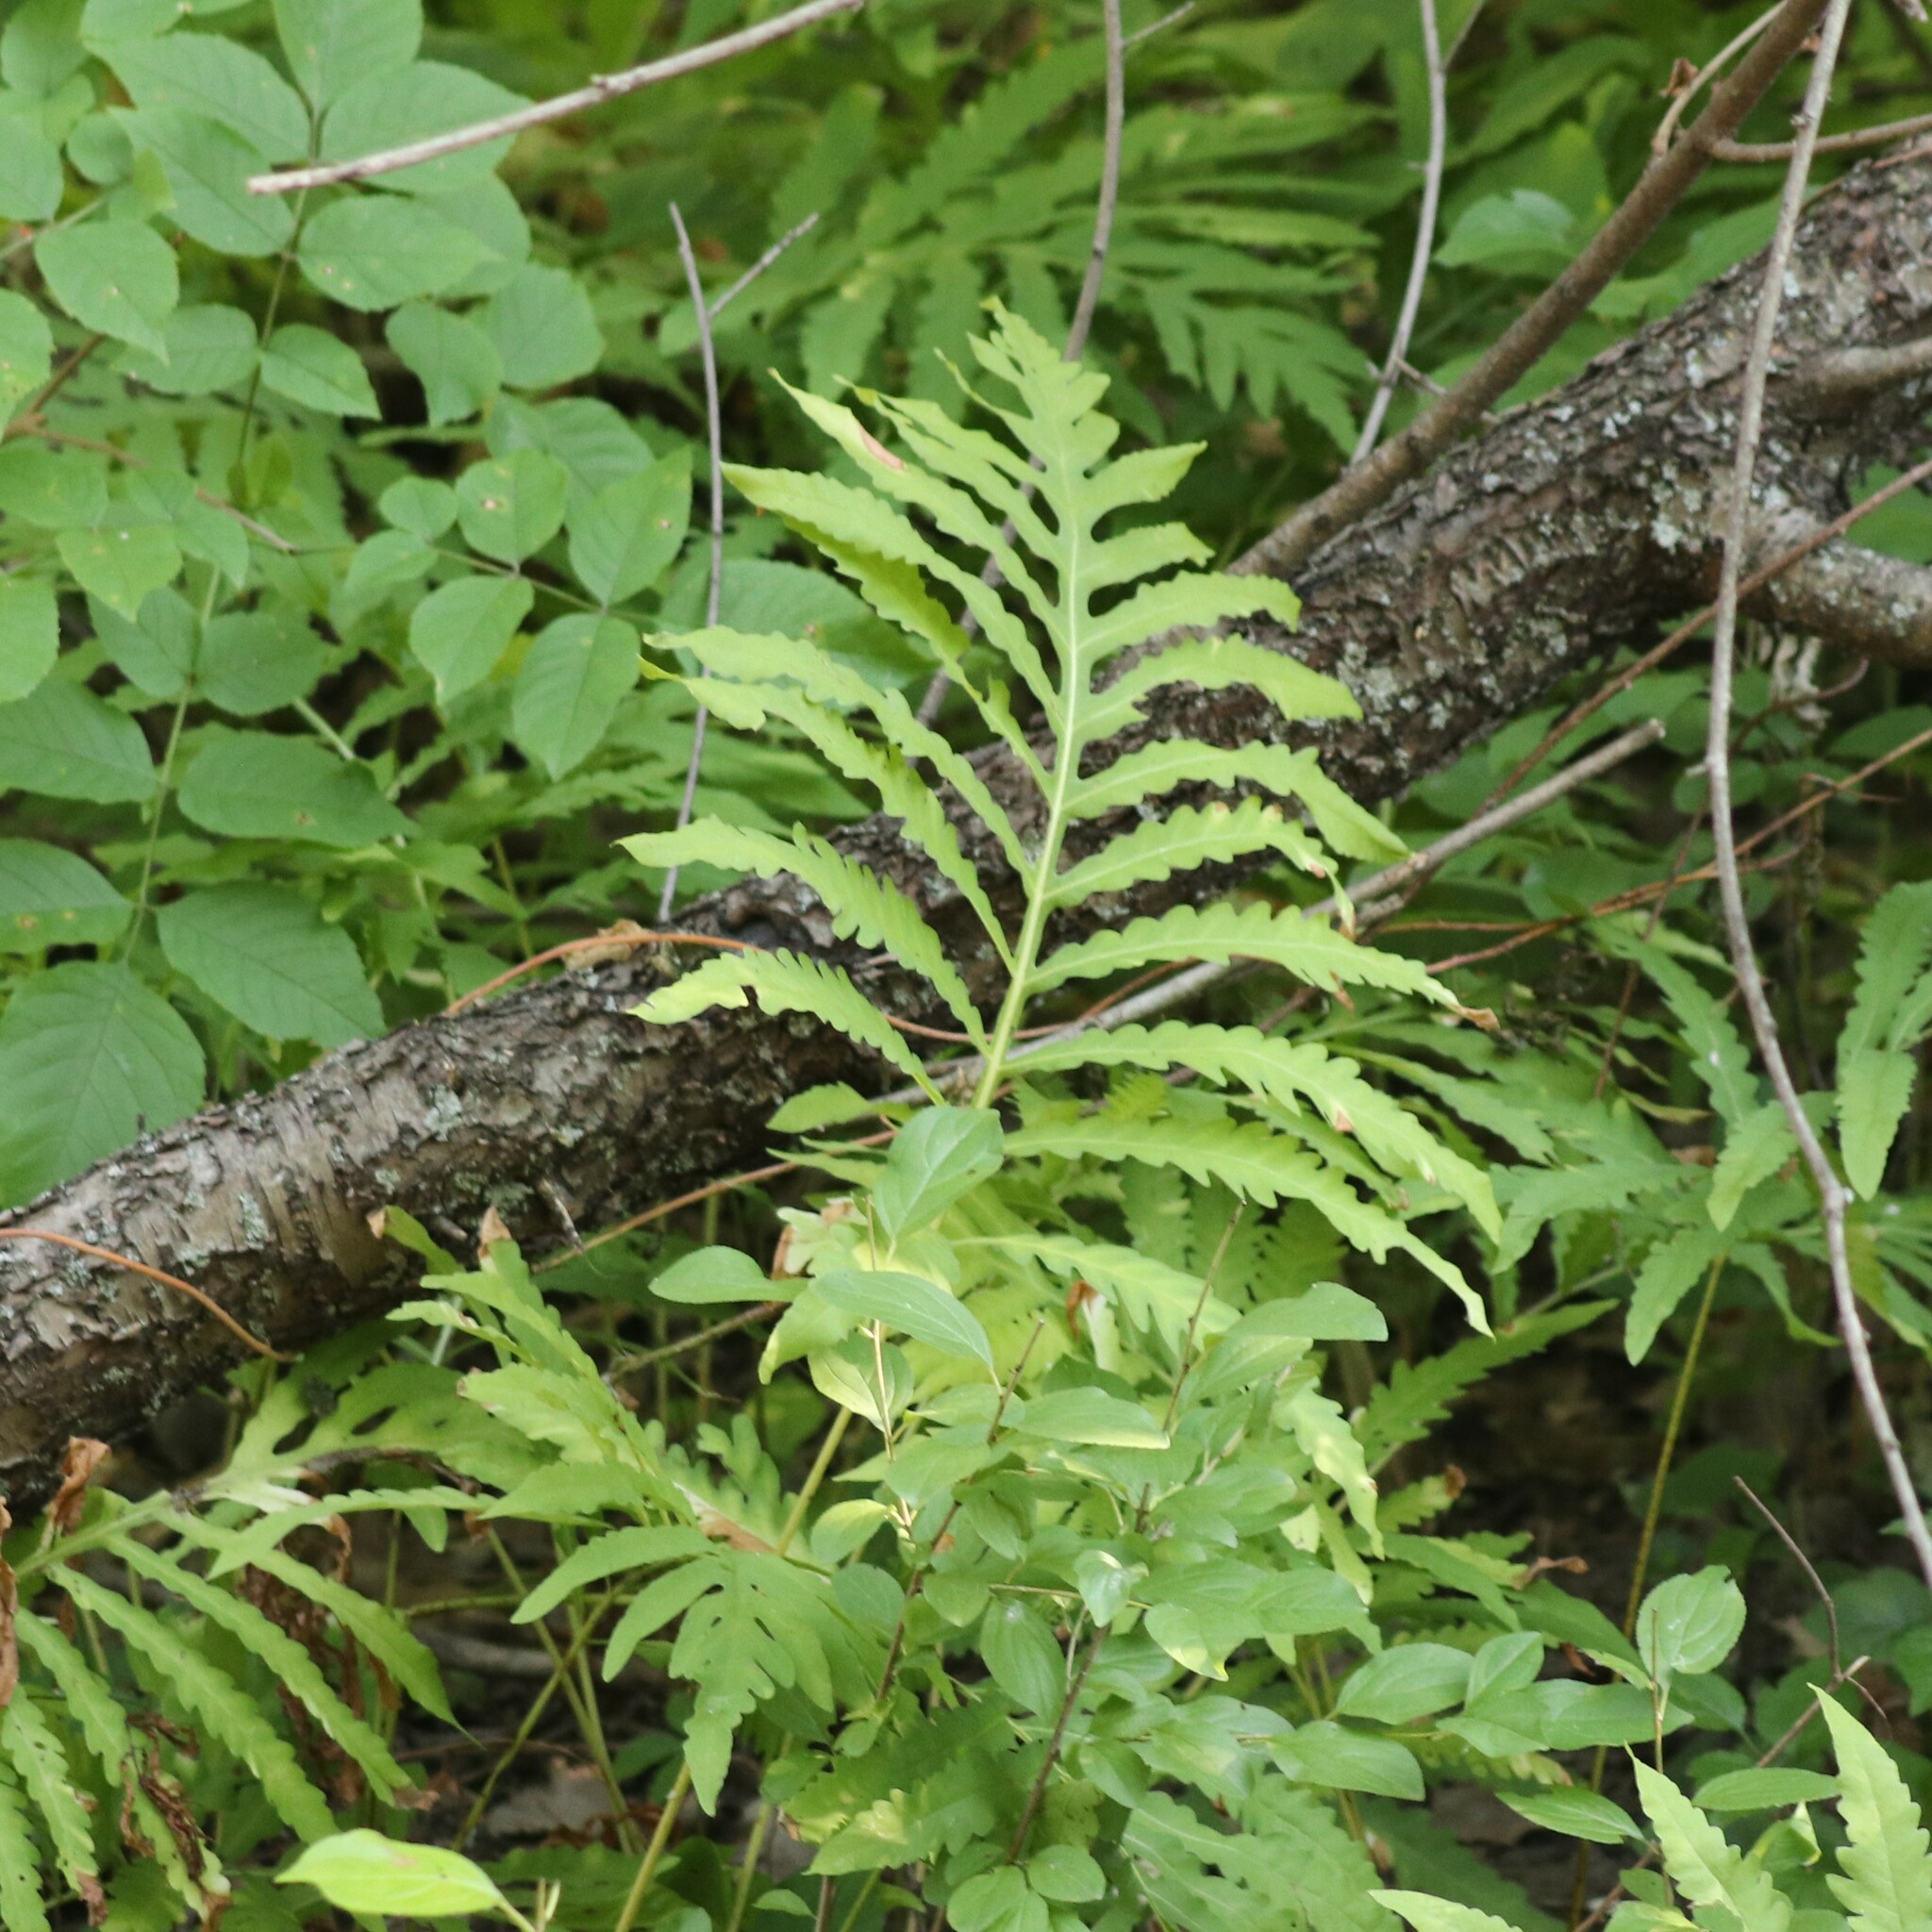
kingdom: Plantae
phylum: Tracheophyta
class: Polypodiopsida
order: Polypodiales
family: Onocleaceae
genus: Onoclea
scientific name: Onoclea sensibilis
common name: Sensitive fern
